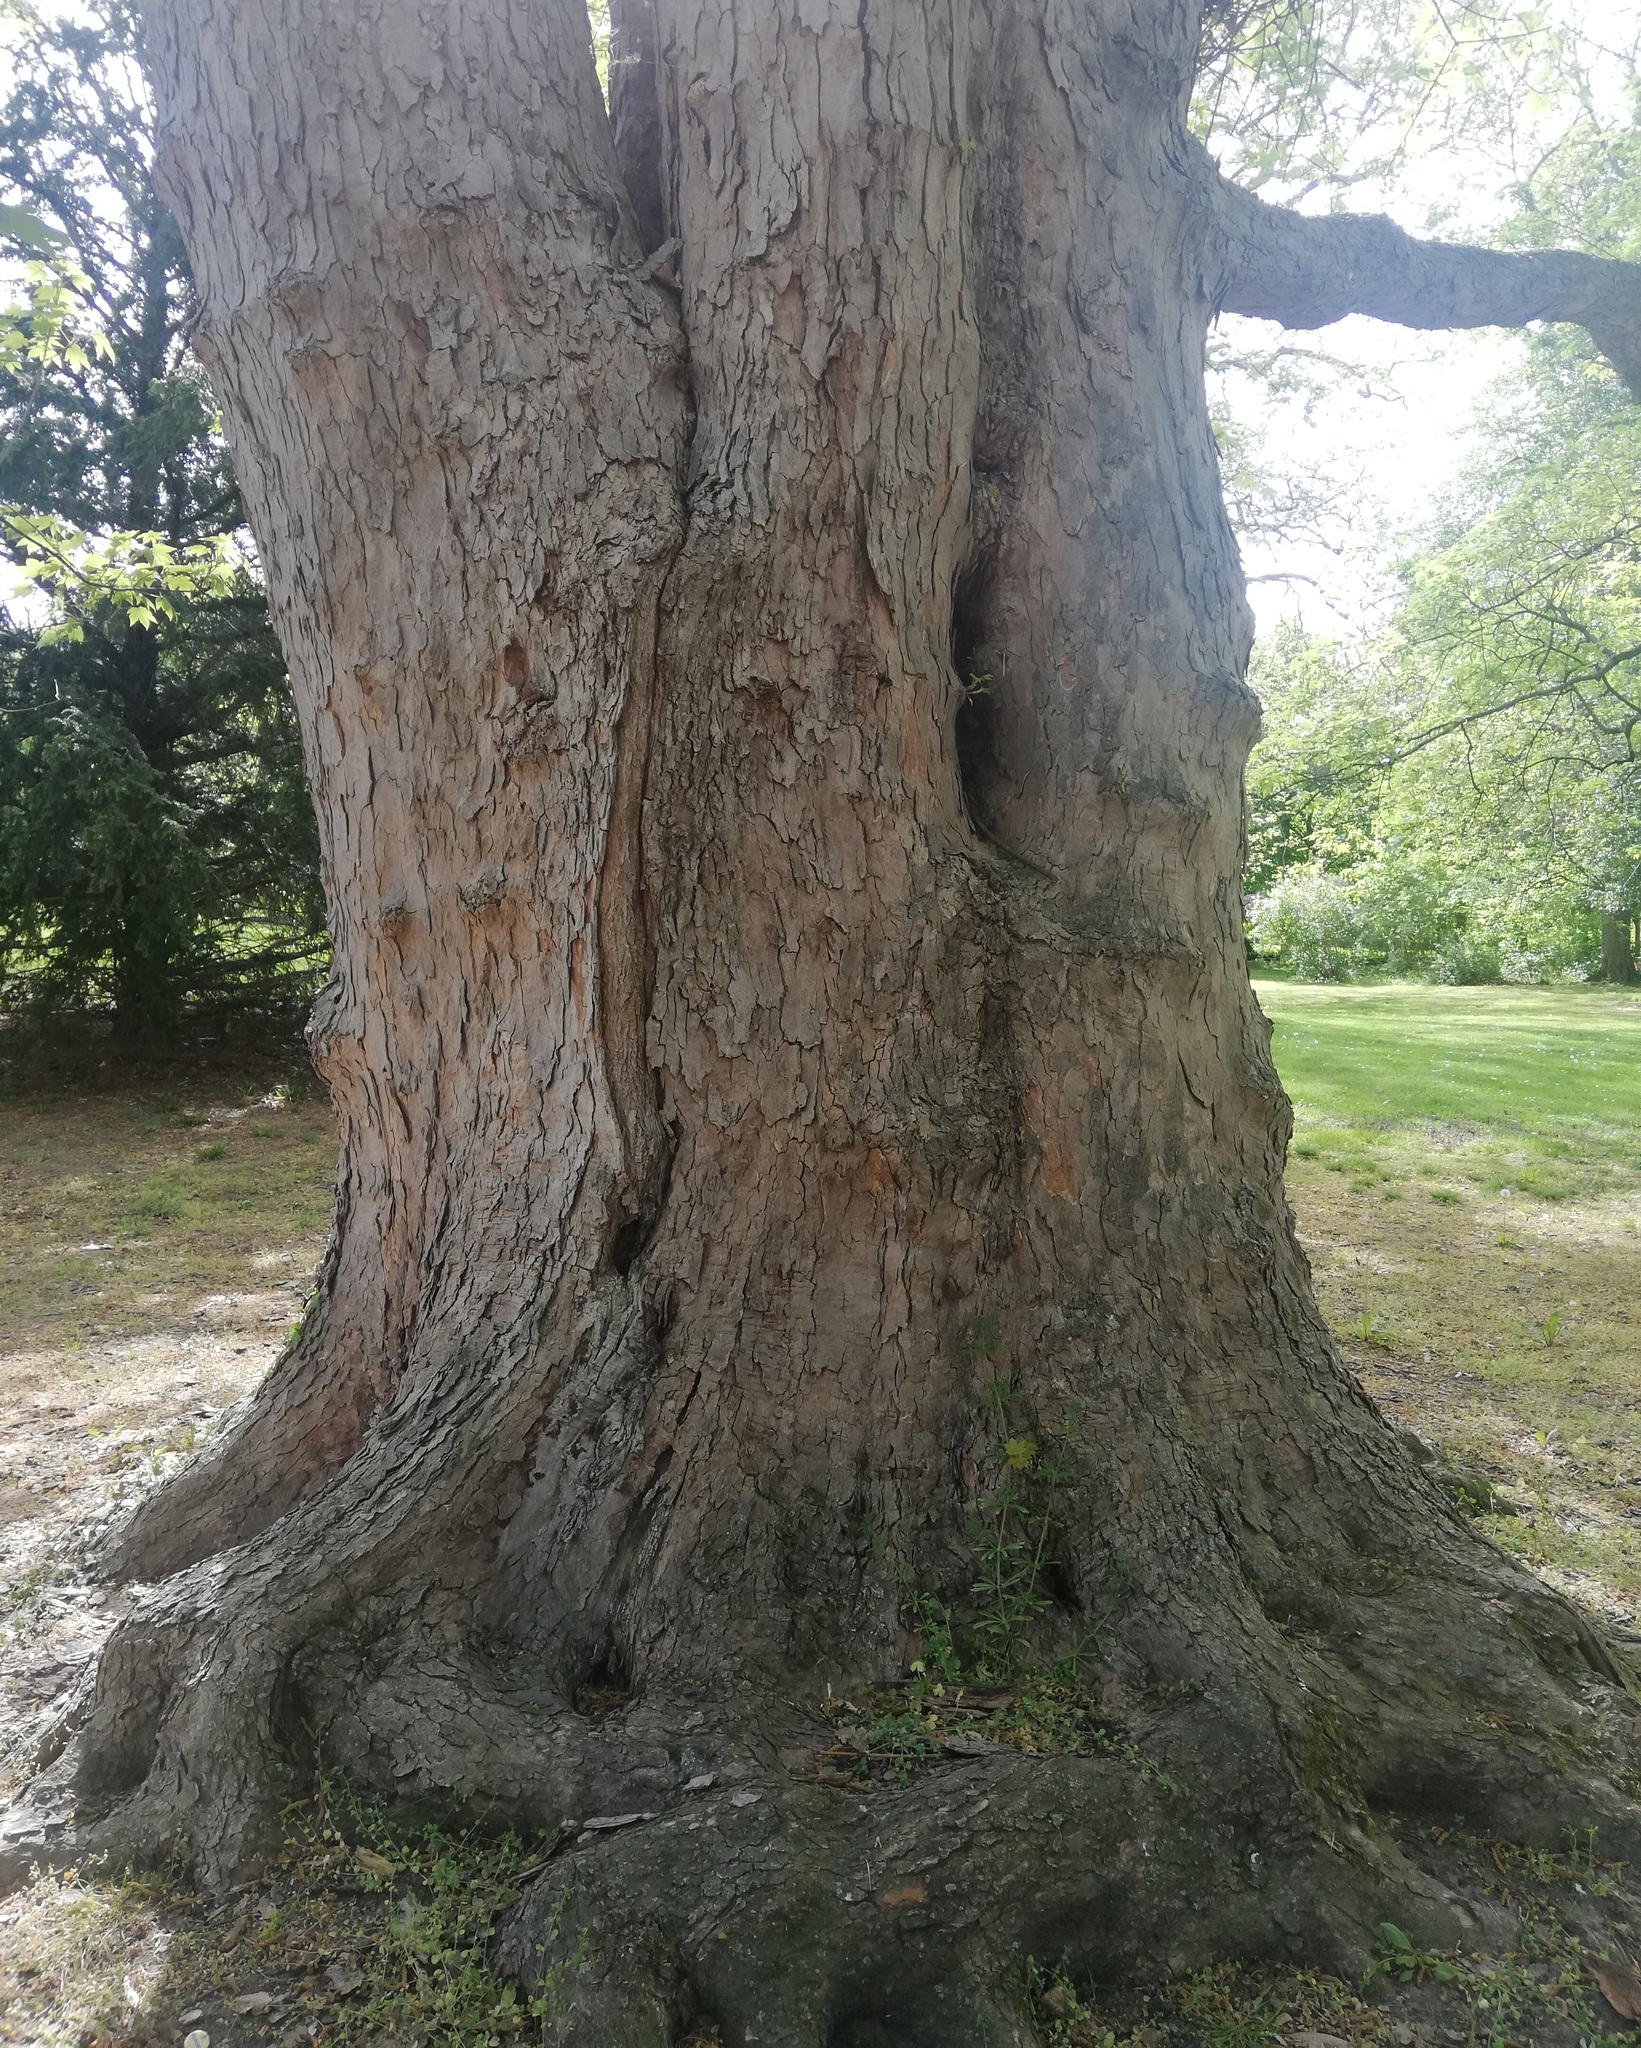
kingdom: Plantae
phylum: Tracheophyta
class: Magnoliopsida
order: Sapindales
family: Sapindaceae
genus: Acer
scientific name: Acer pseudoplatanus
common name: Sycamore
